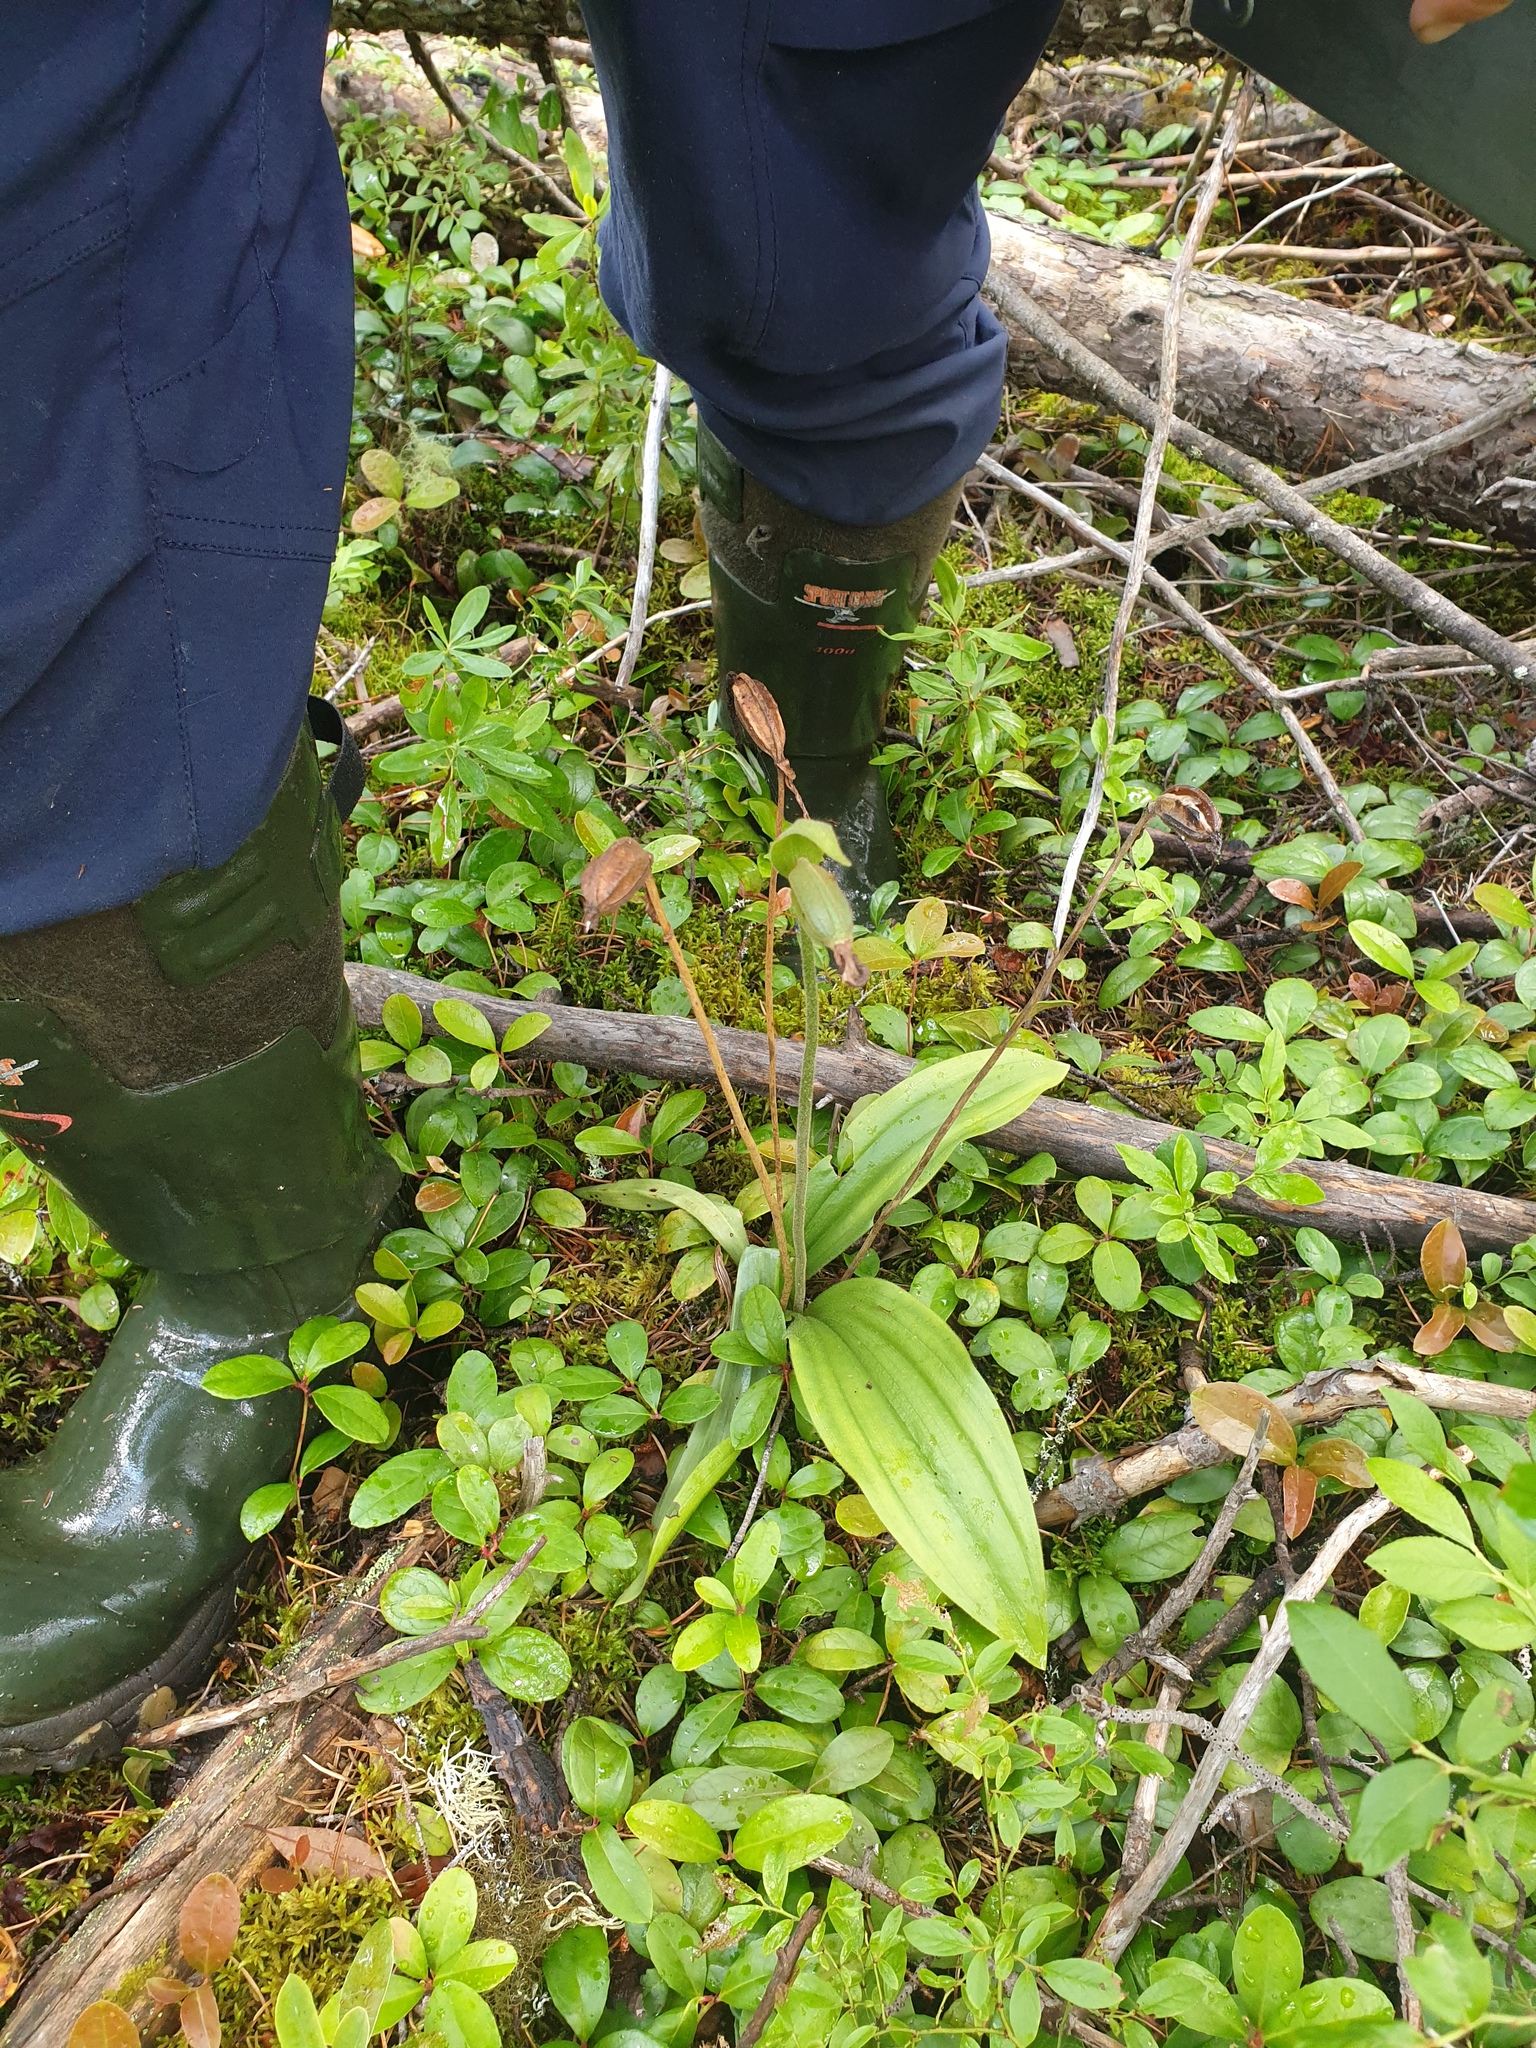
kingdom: Plantae
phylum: Tracheophyta
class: Liliopsida
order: Asparagales
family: Orchidaceae
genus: Cypripedium
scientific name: Cypripedium acaule
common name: Pink lady's-slipper
